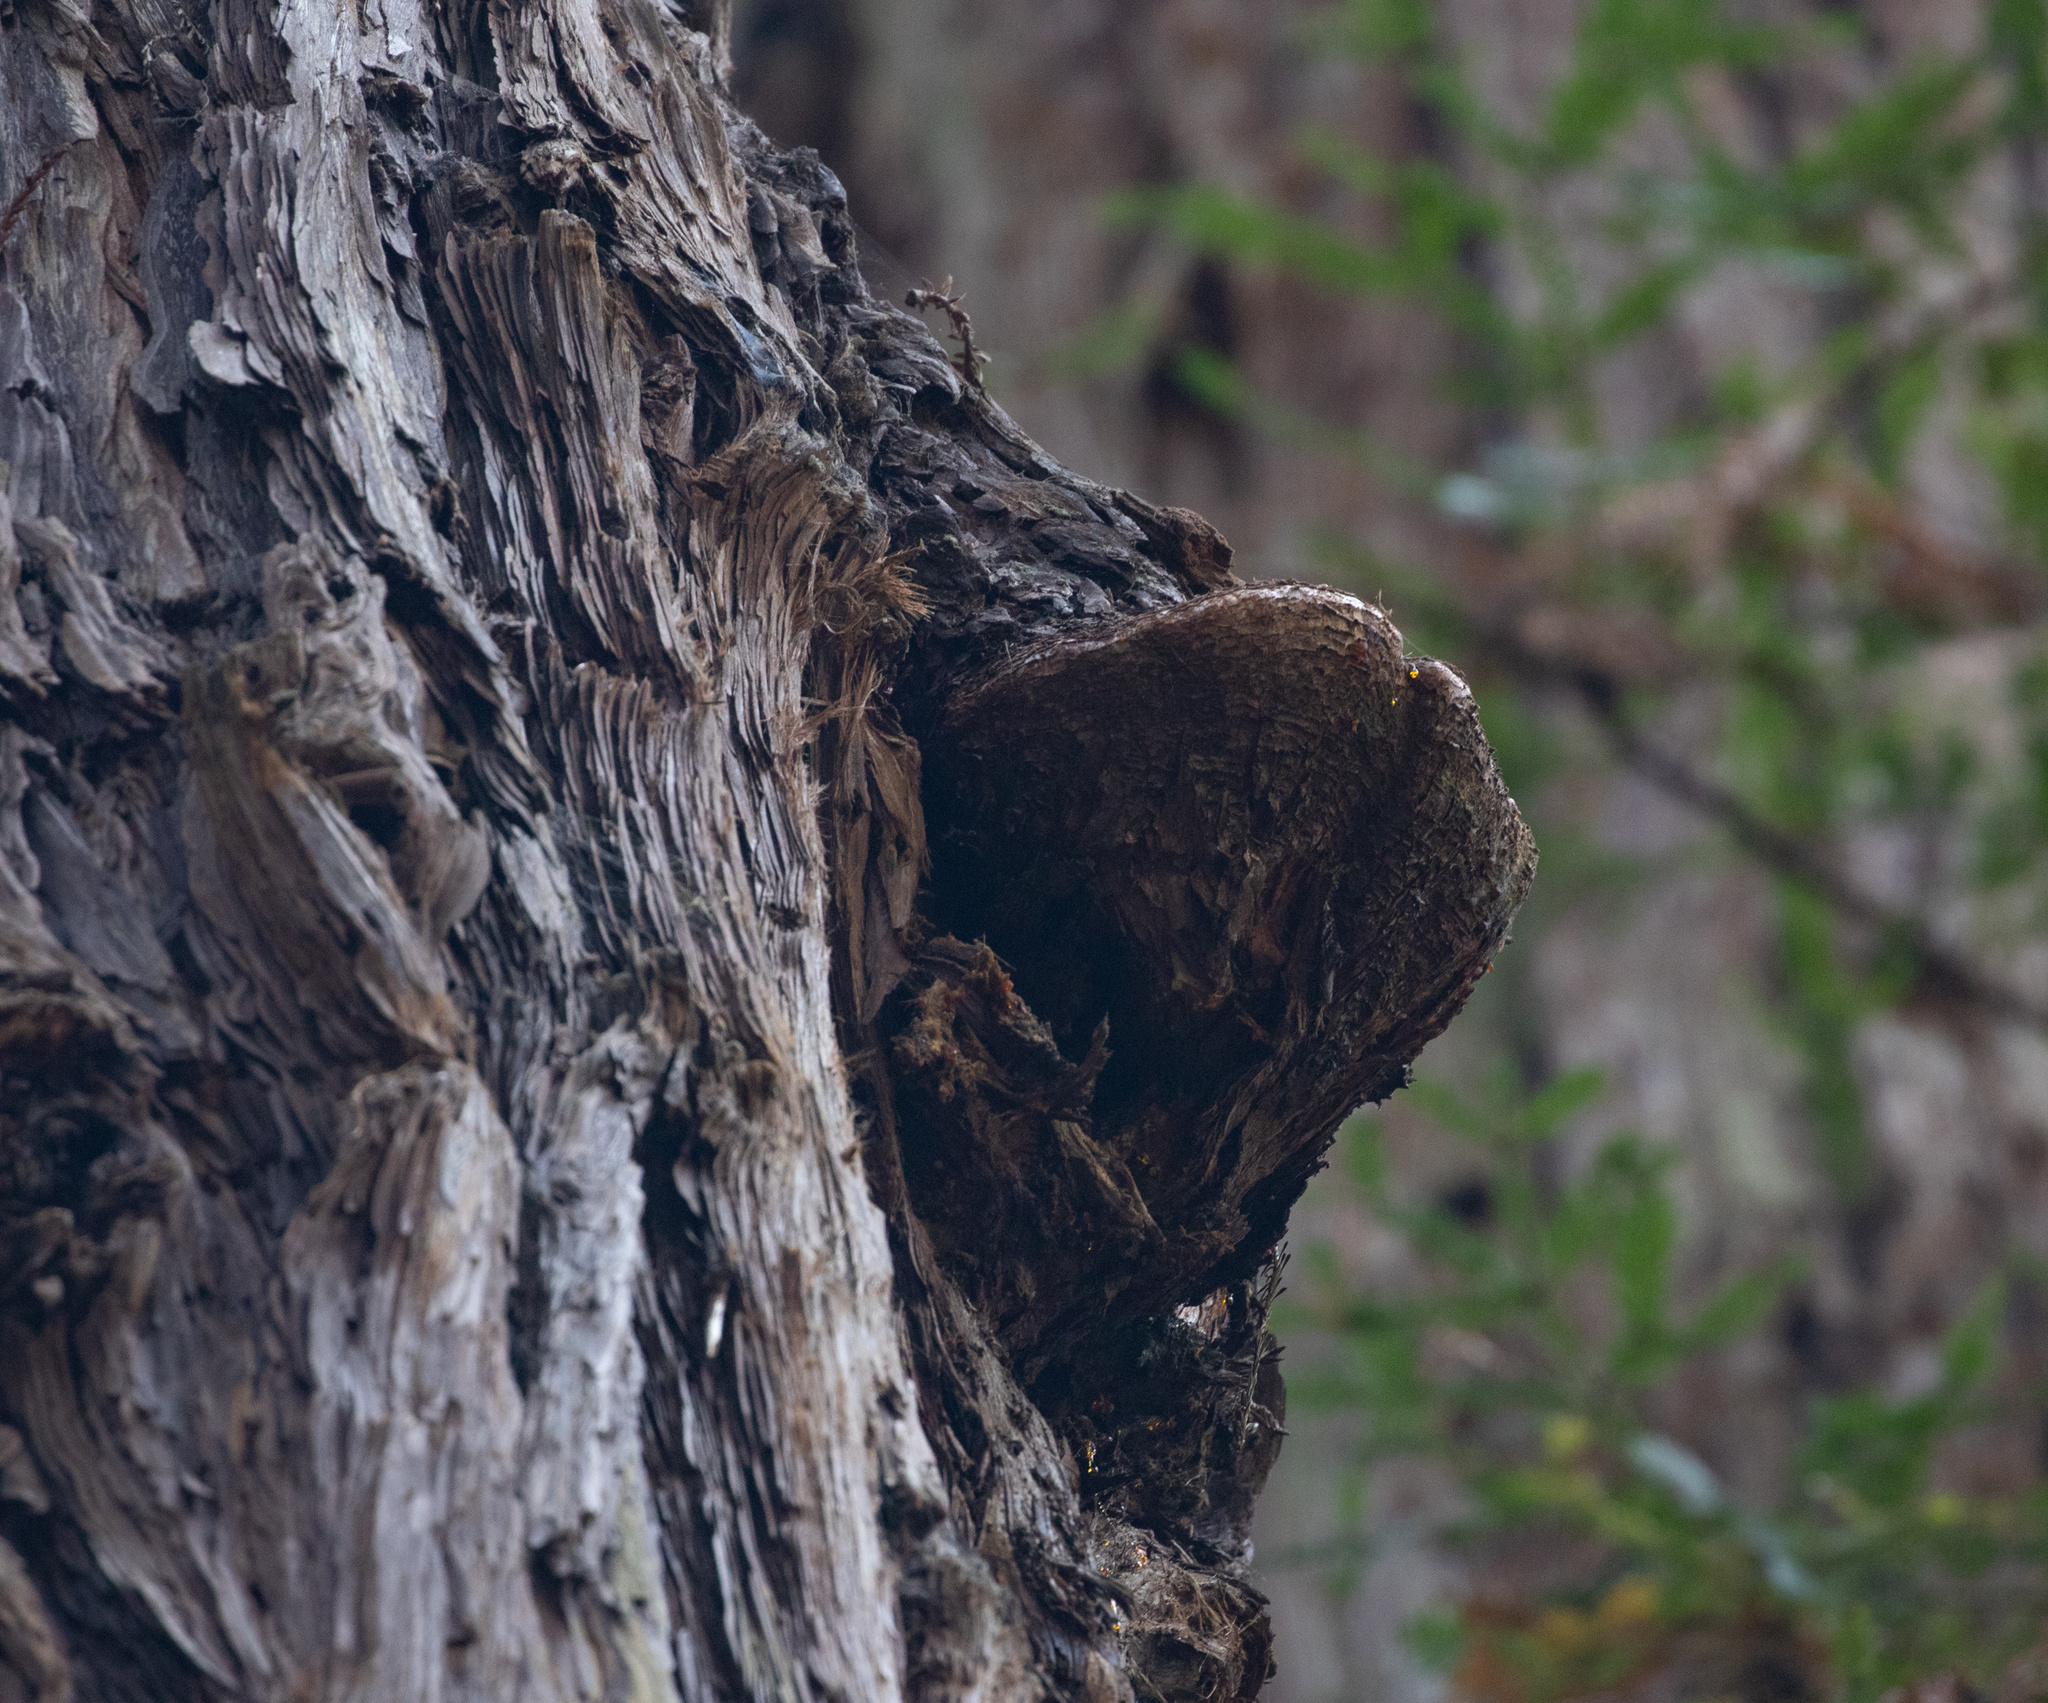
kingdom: Plantae
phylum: Tracheophyta
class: Pinopsida
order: Pinales
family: Cupressaceae
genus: Sequoia
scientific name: Sequoia sempervirens
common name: Coast redwood
